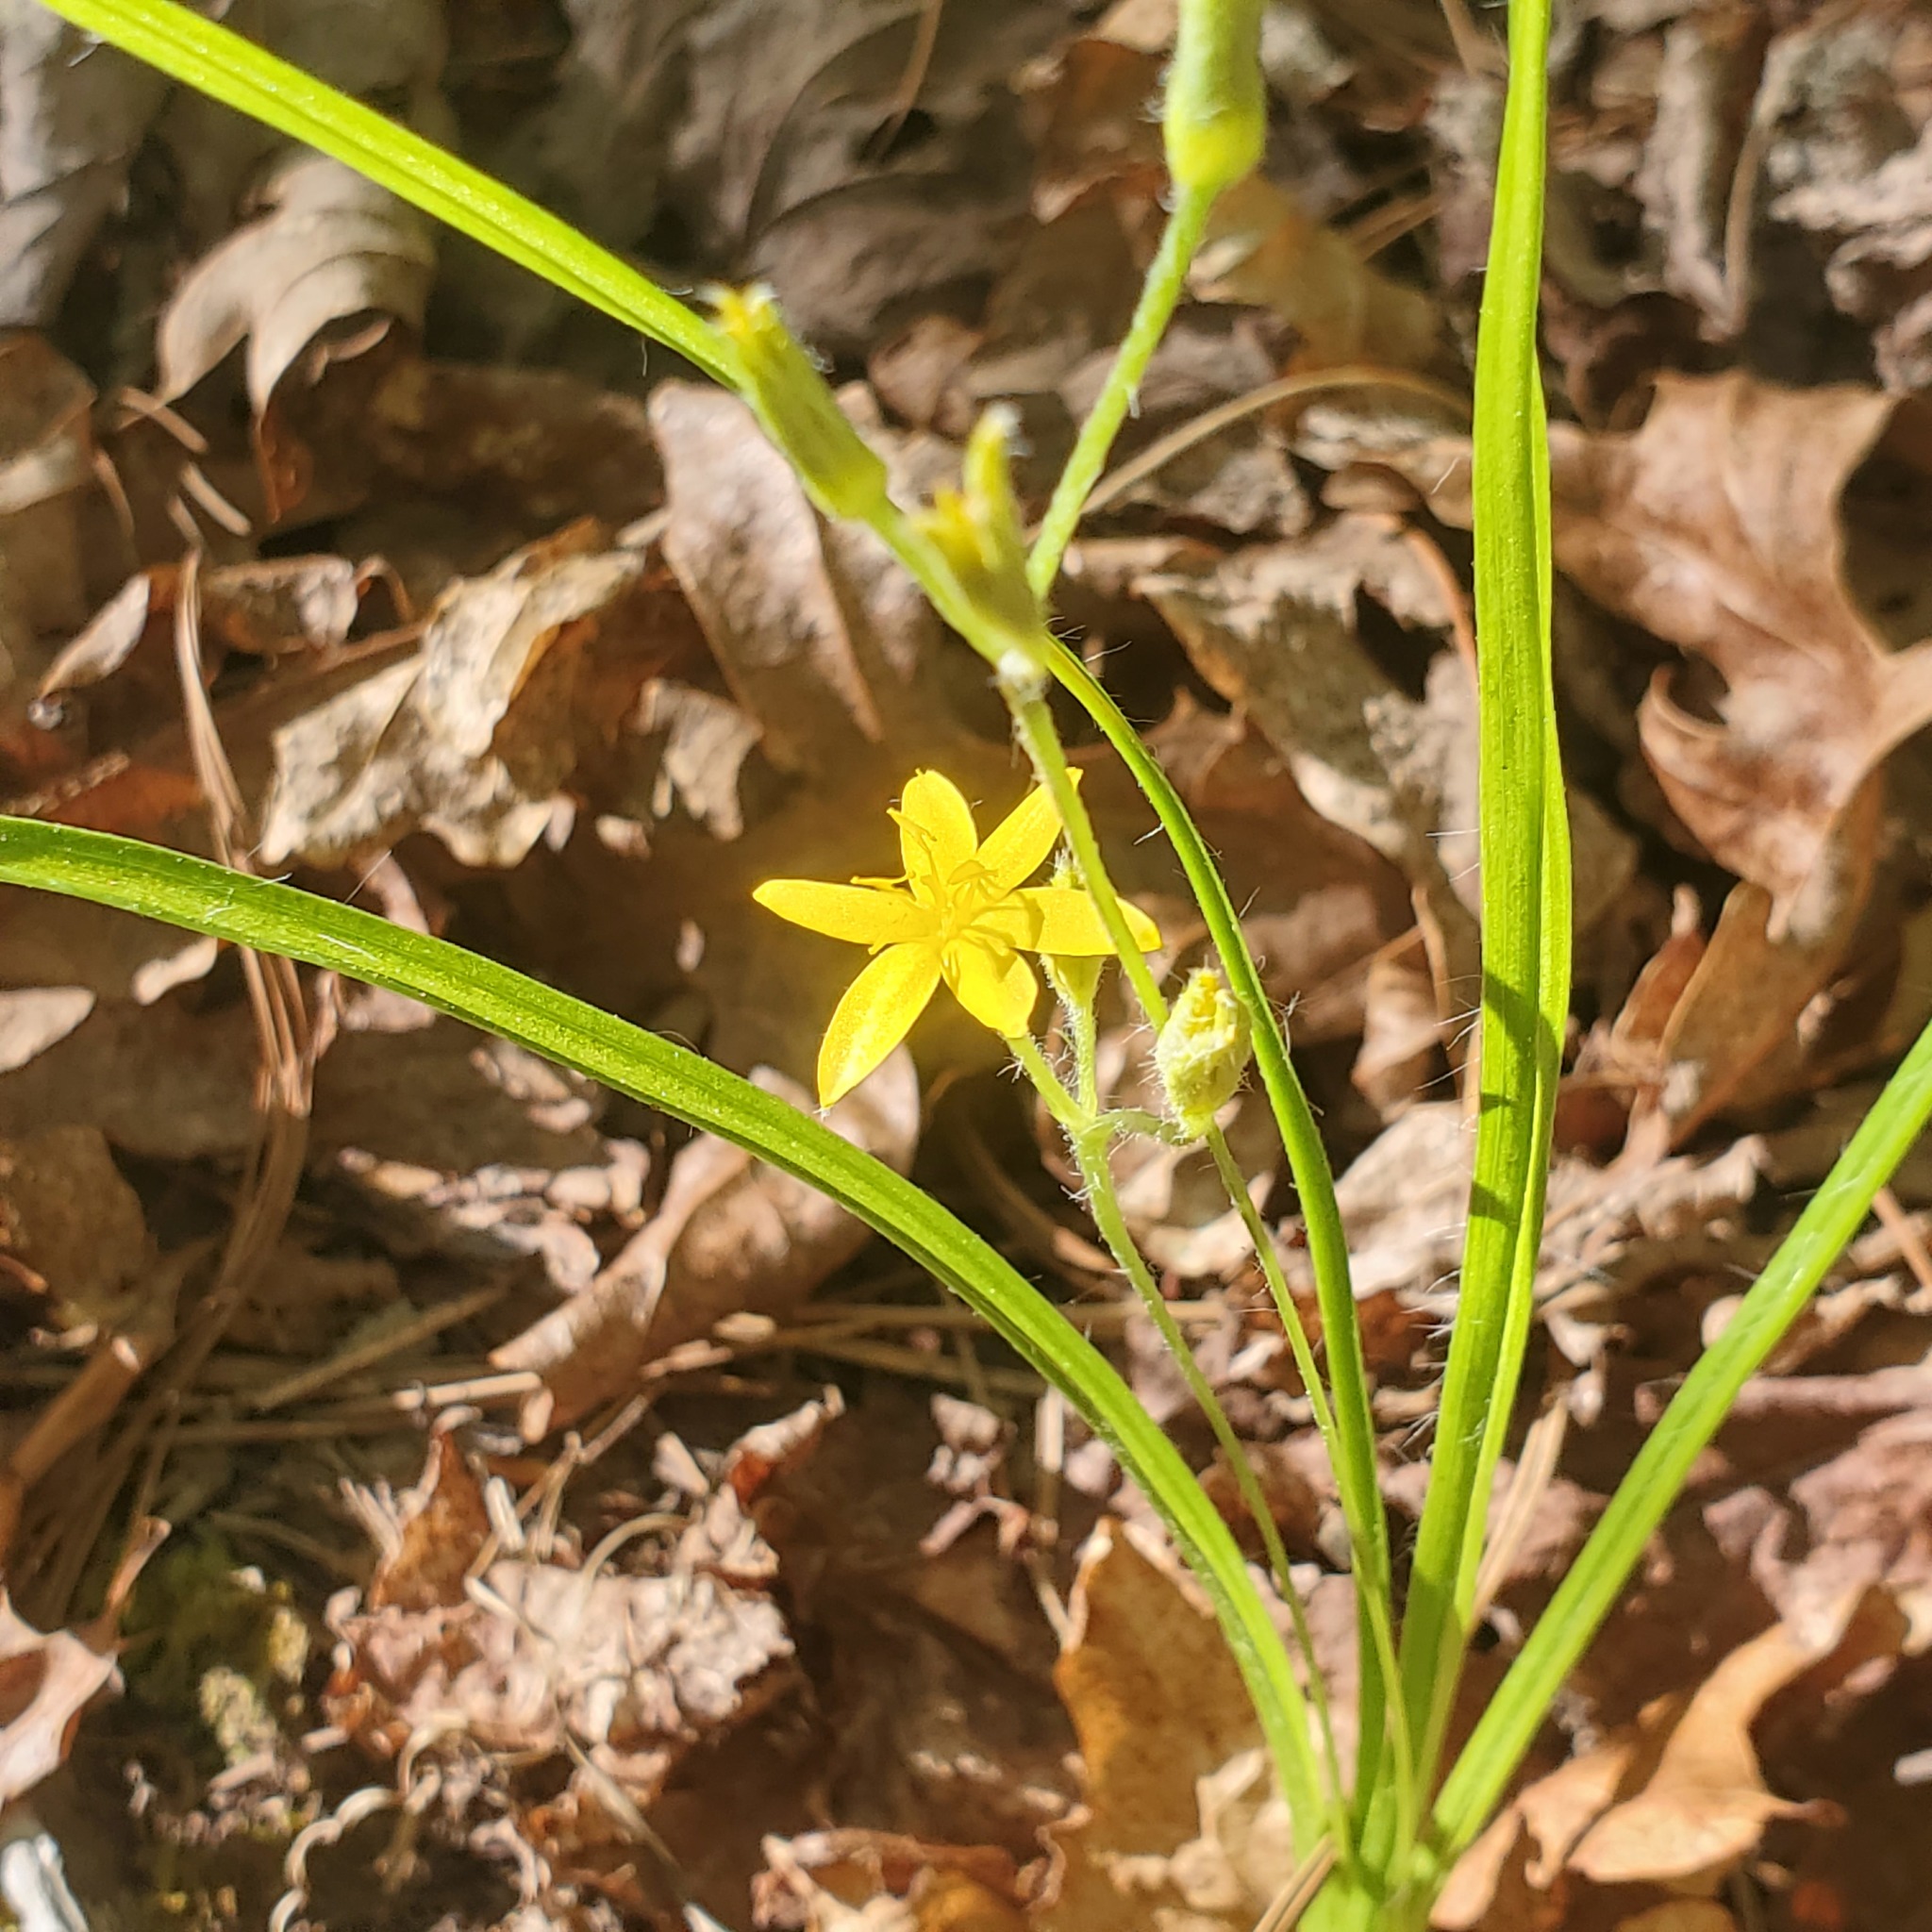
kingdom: Plantae
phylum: Tracheophyta
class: Liliopsida
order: Asparagales
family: Hypoxidaceae
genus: Hypoxis
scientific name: Hypoxis hirsuta
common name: Common goldstar
